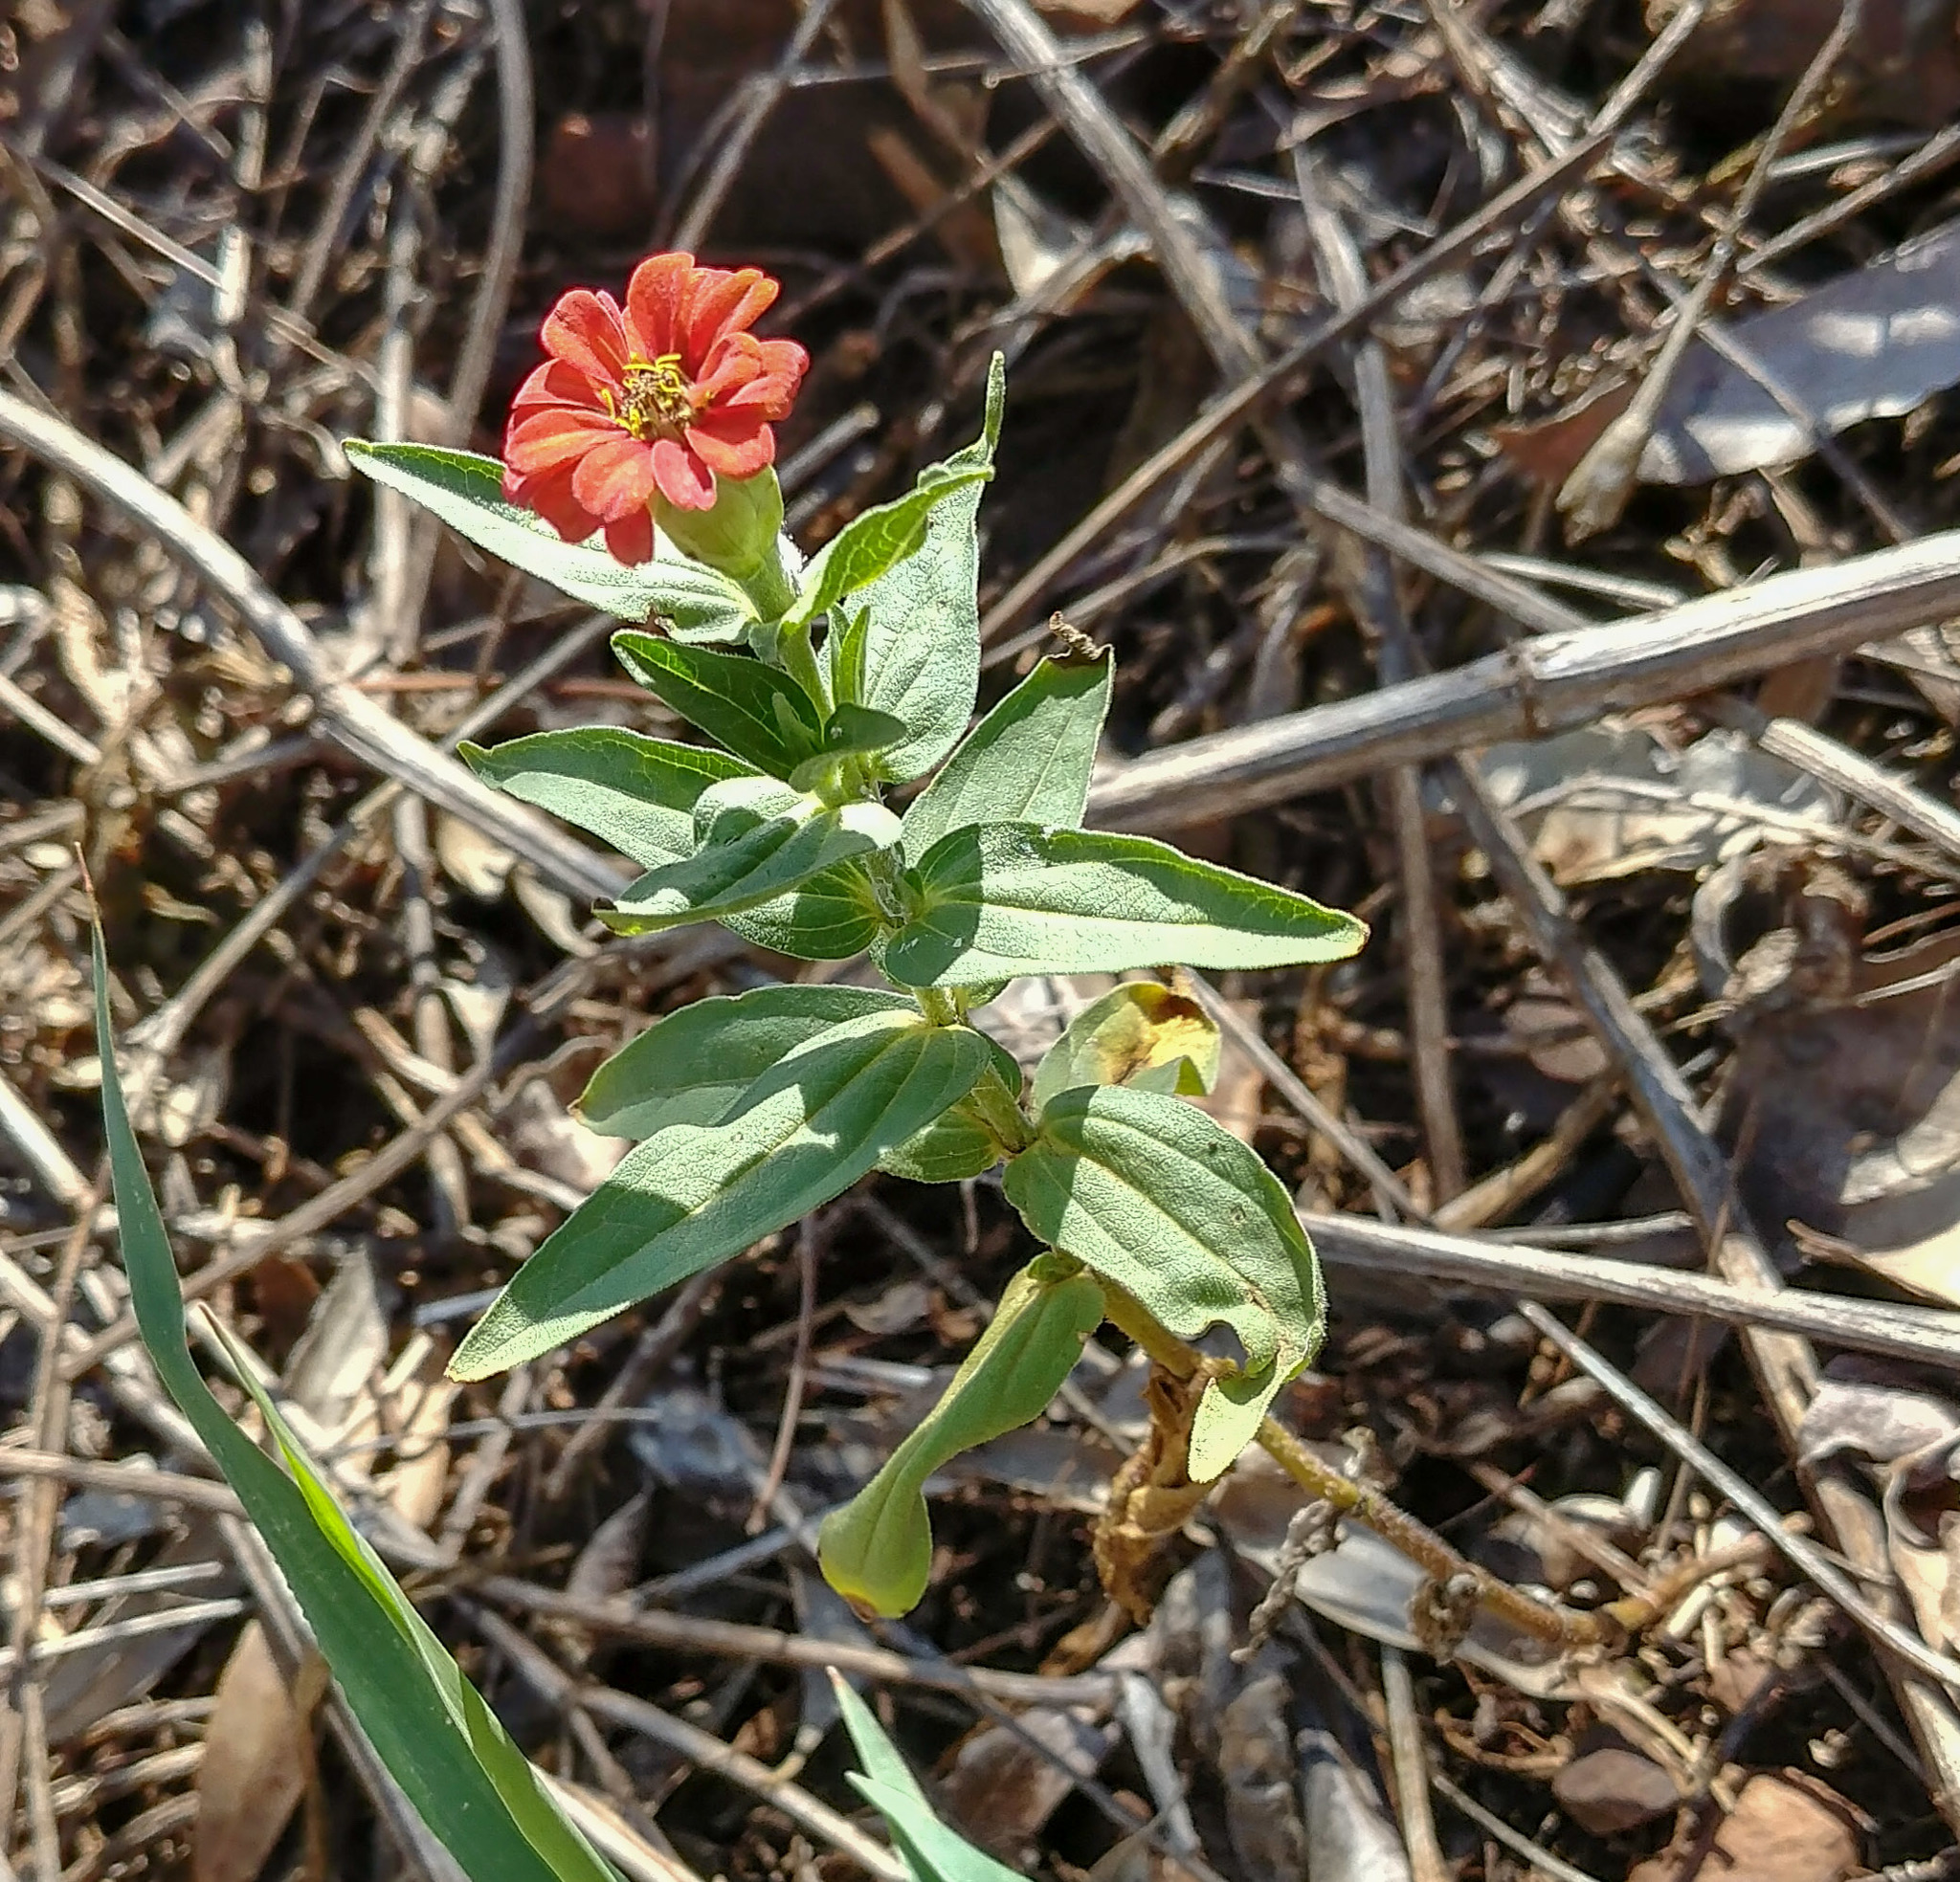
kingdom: Plantae
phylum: Tracheophyta
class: Magnoliopsida
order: Asterales
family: Asteraceae
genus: Zinnia
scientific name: Zinnia peruviana
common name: Peruvian zinnia
